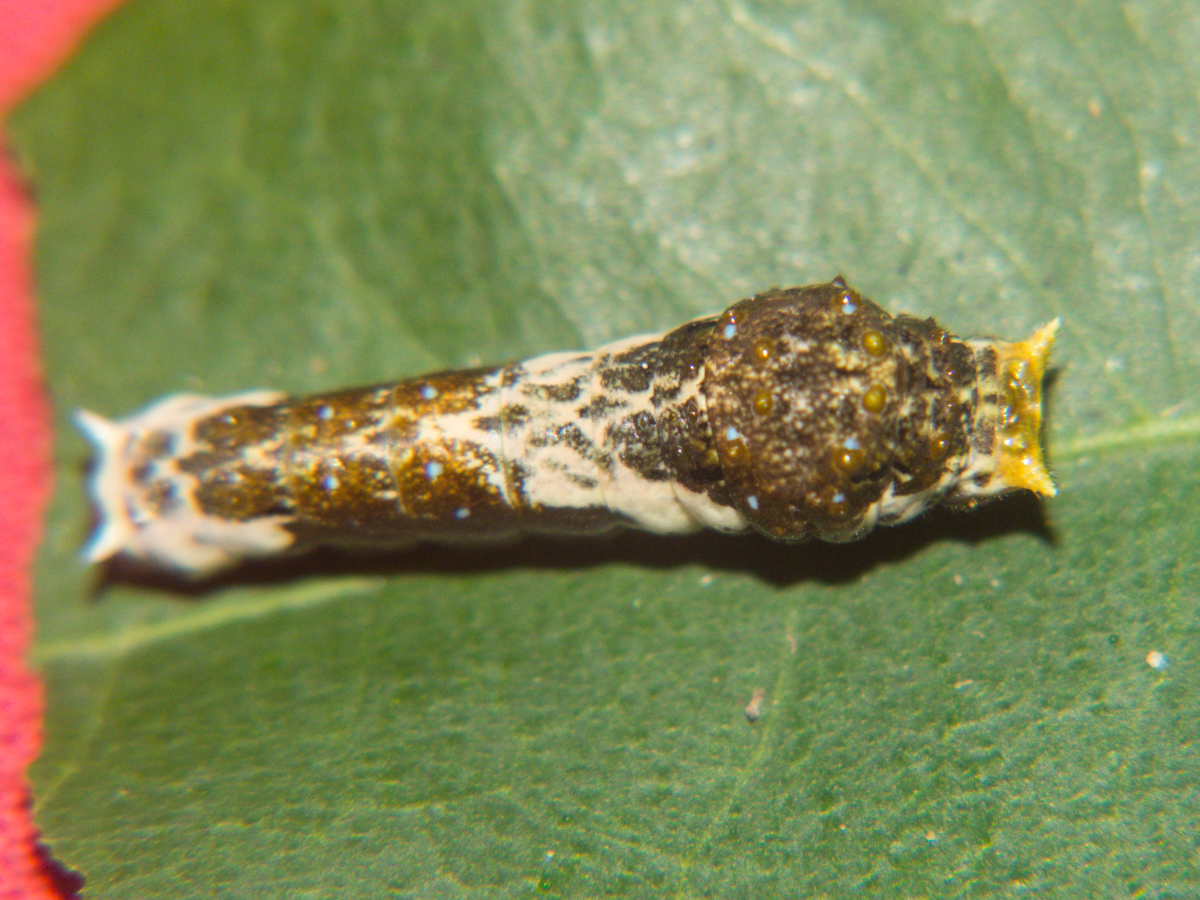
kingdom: Animalia
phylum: Arthropoda
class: Insecta
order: Lepidoptera
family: Papilionidae
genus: Papilio
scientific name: Papilio polytes
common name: Common mormon
